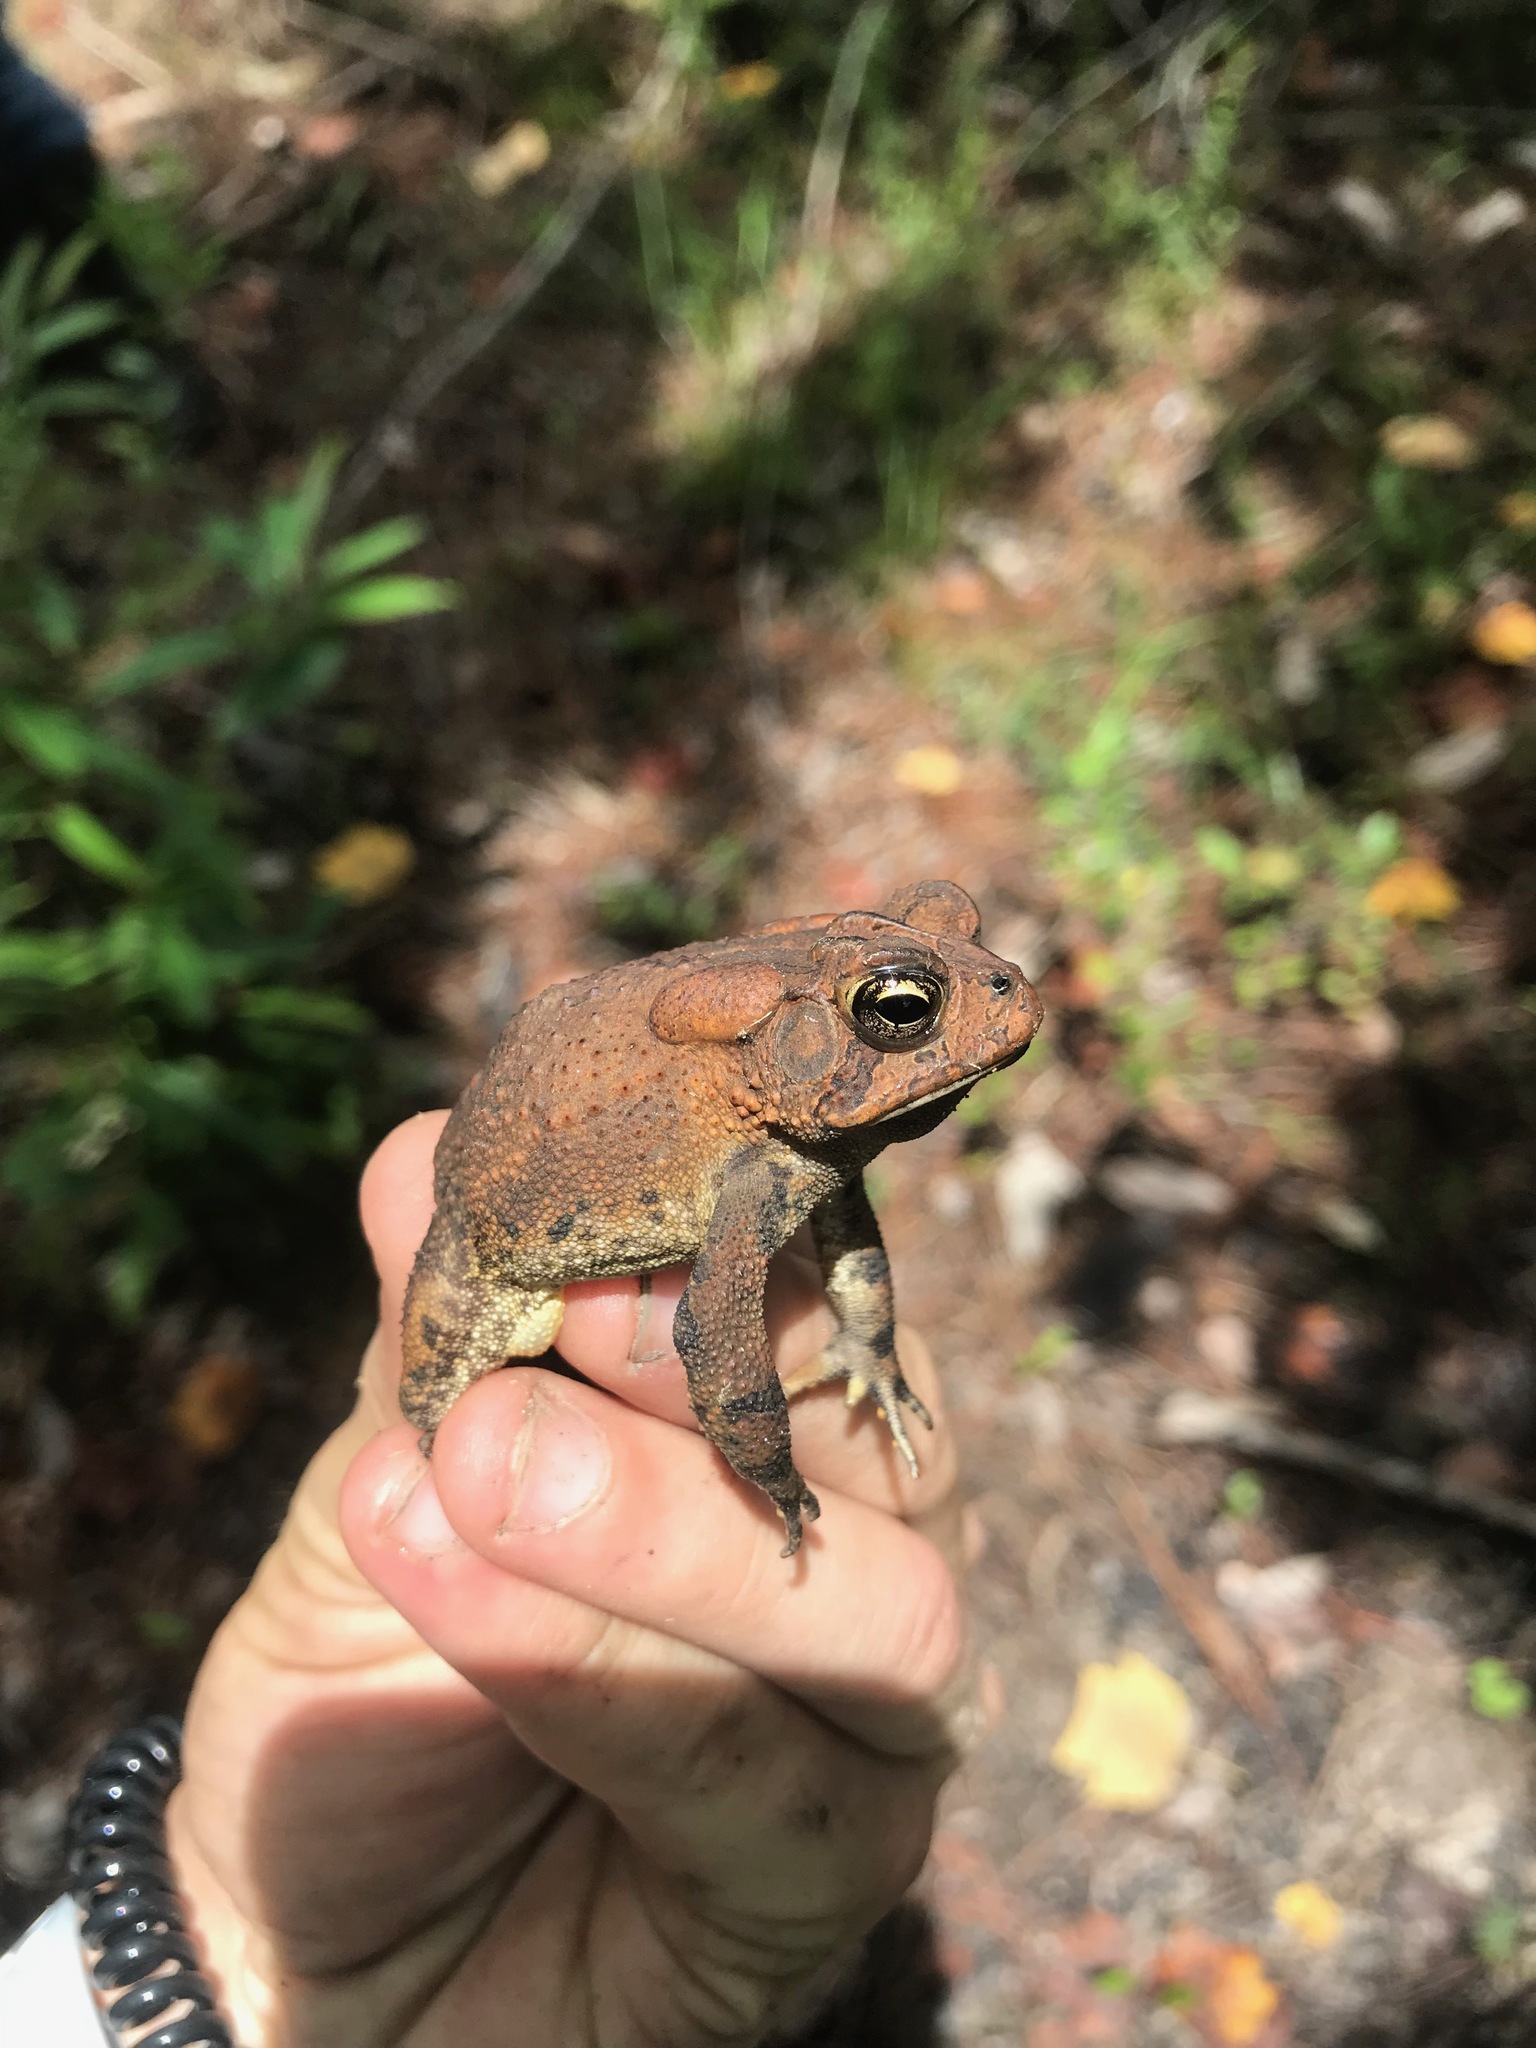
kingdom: Animalia
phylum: Chordata
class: Amphibia
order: Anura
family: Bufonidae
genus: Anaxyrus
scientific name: Anaxyrus terrestris
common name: Southern toad
